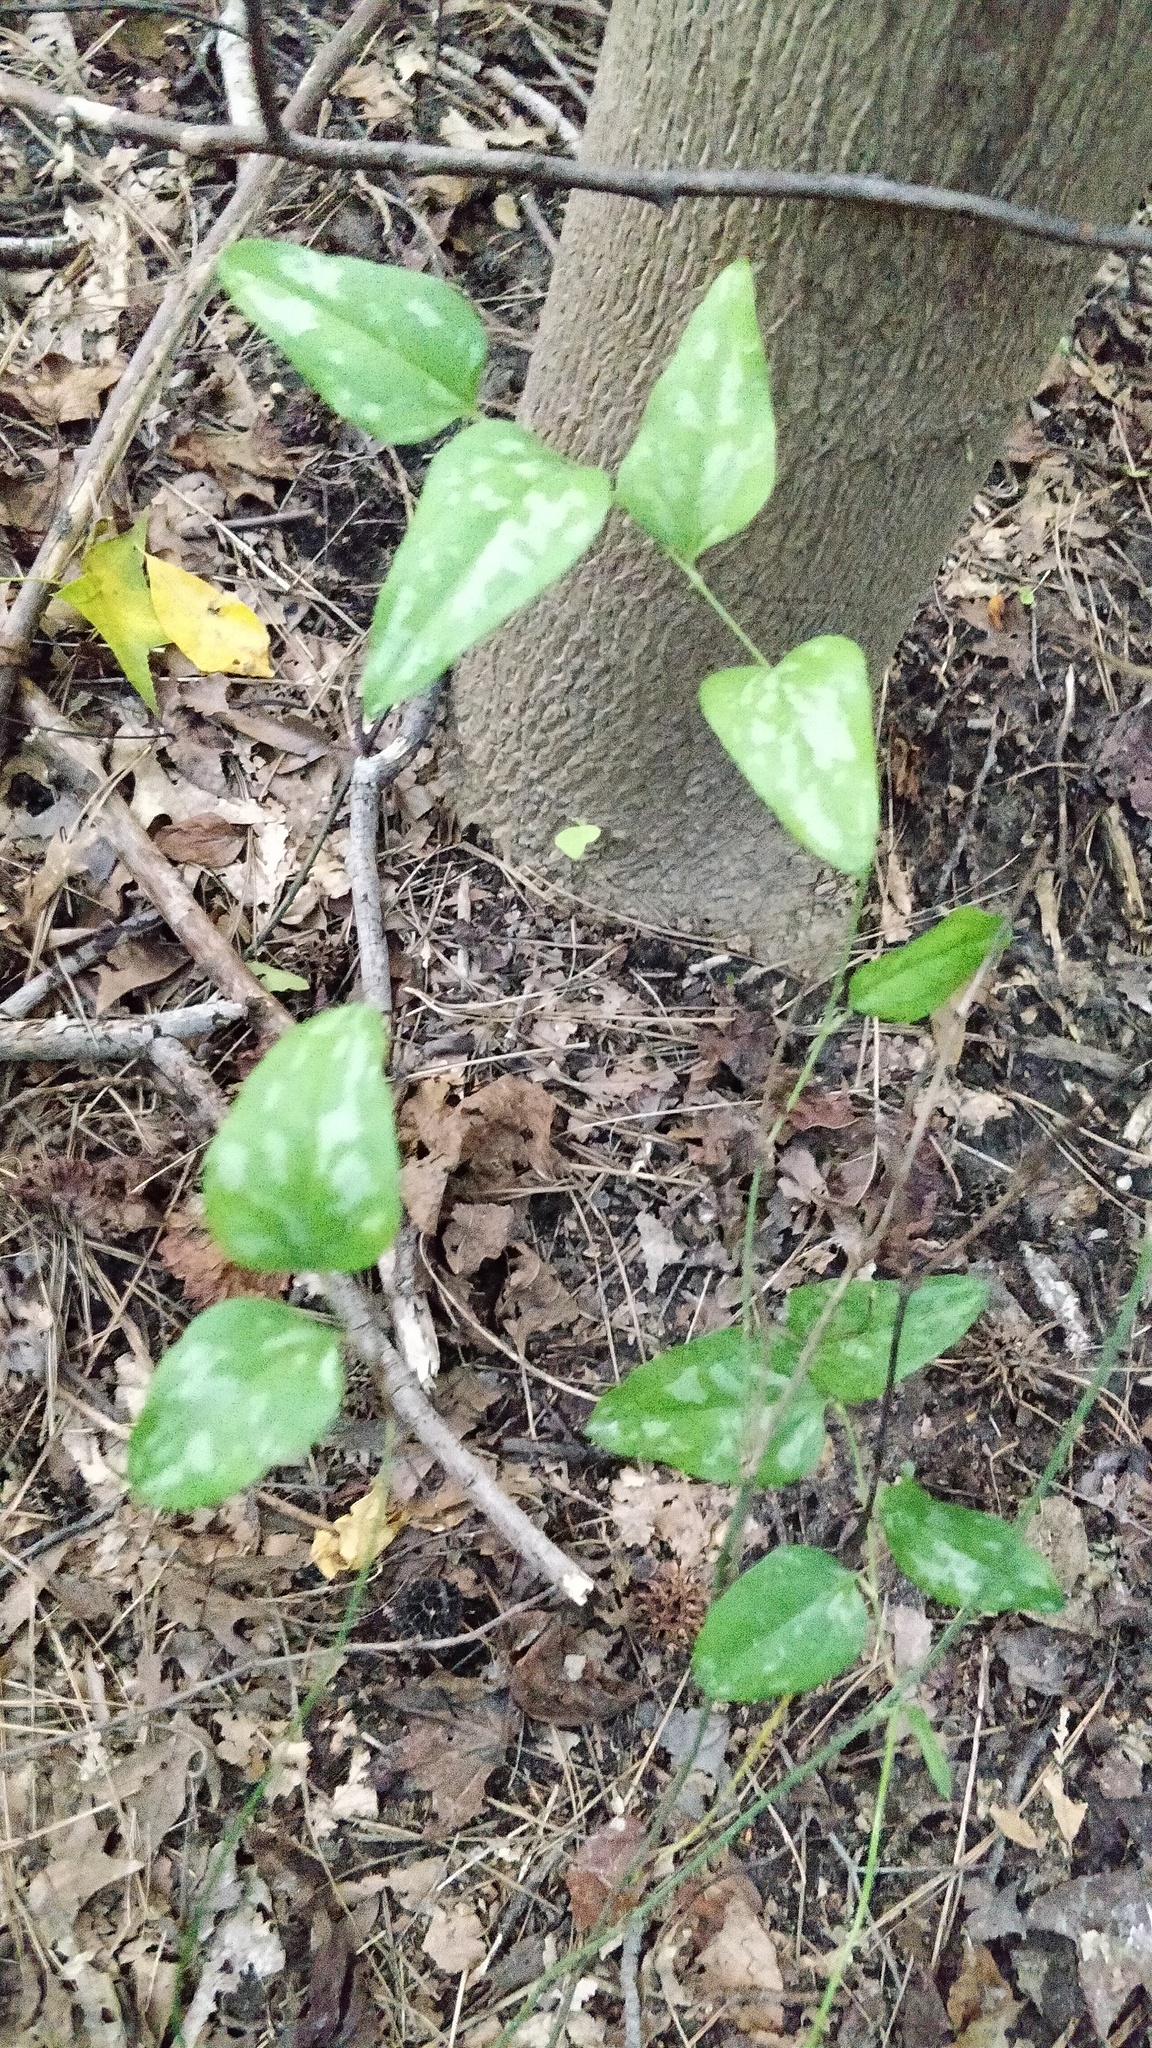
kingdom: Plantae
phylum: Tracheophyta
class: Liliopsida
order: Liliales
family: Smilacaceae
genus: Smilax
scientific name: Smilax glauca
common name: Cat greenbrier
